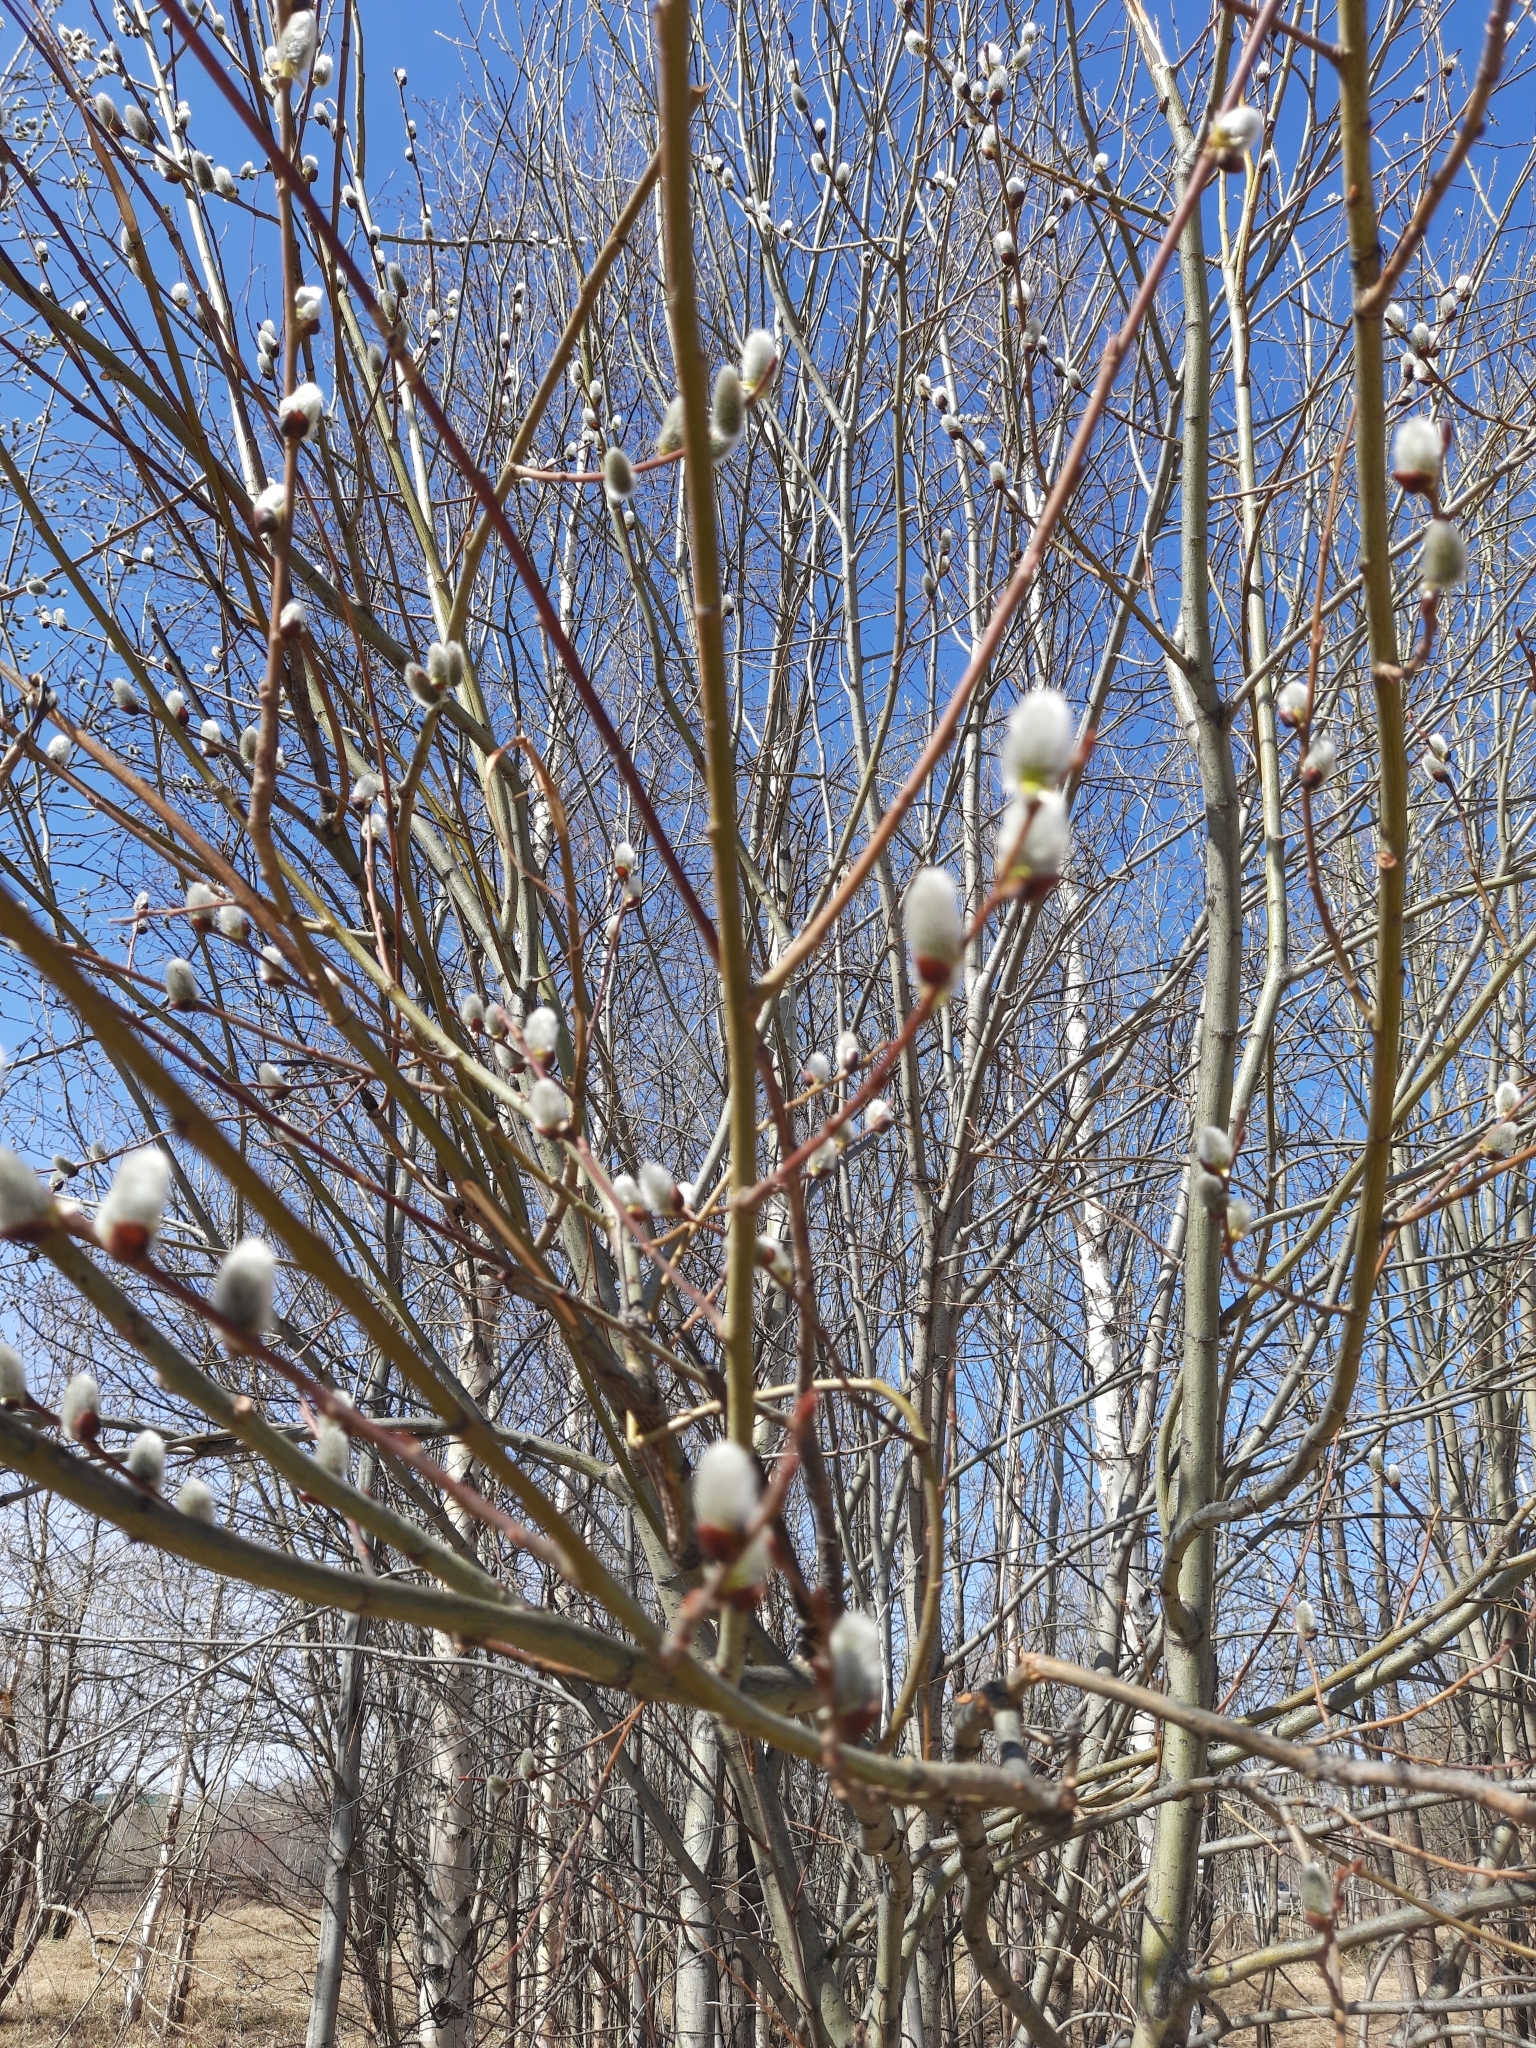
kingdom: Plantae
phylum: Tracheophyta
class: Magnoliopsida
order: Malpighiales
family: Salicaceae
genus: Salix
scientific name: Salix caprea
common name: Goat willow
